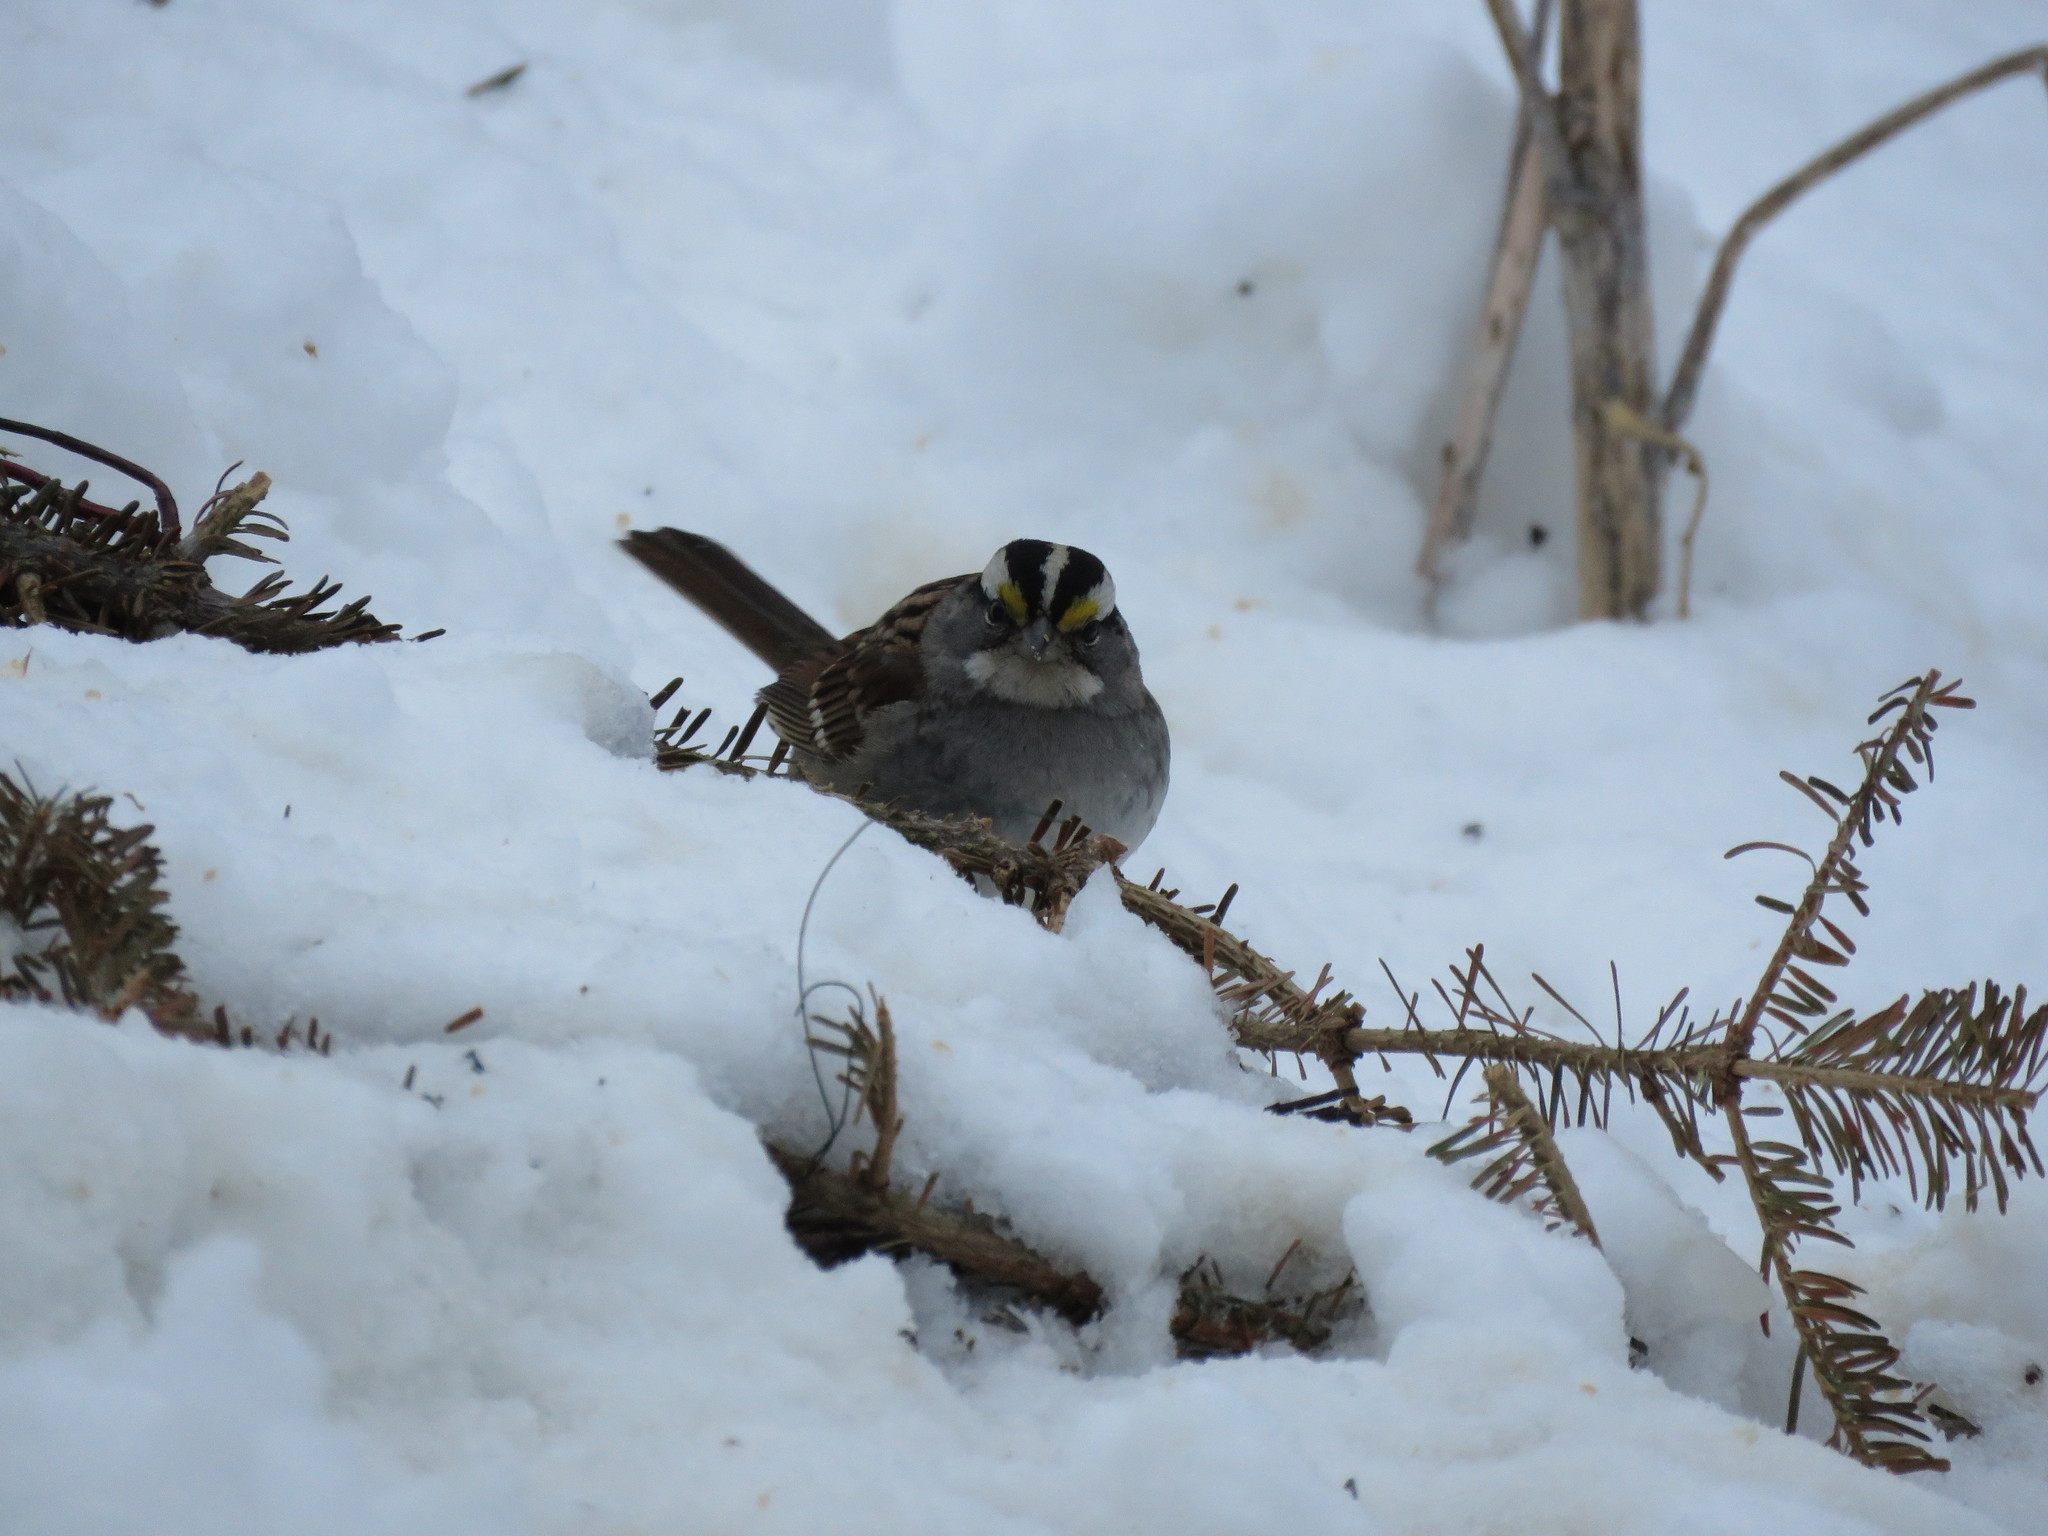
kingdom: Animalia
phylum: Chordata
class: Aves
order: Passeriformes
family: Passerellidae
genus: Zonotrichia
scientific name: Zonotrichia albicollis
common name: White-throated sparrow
